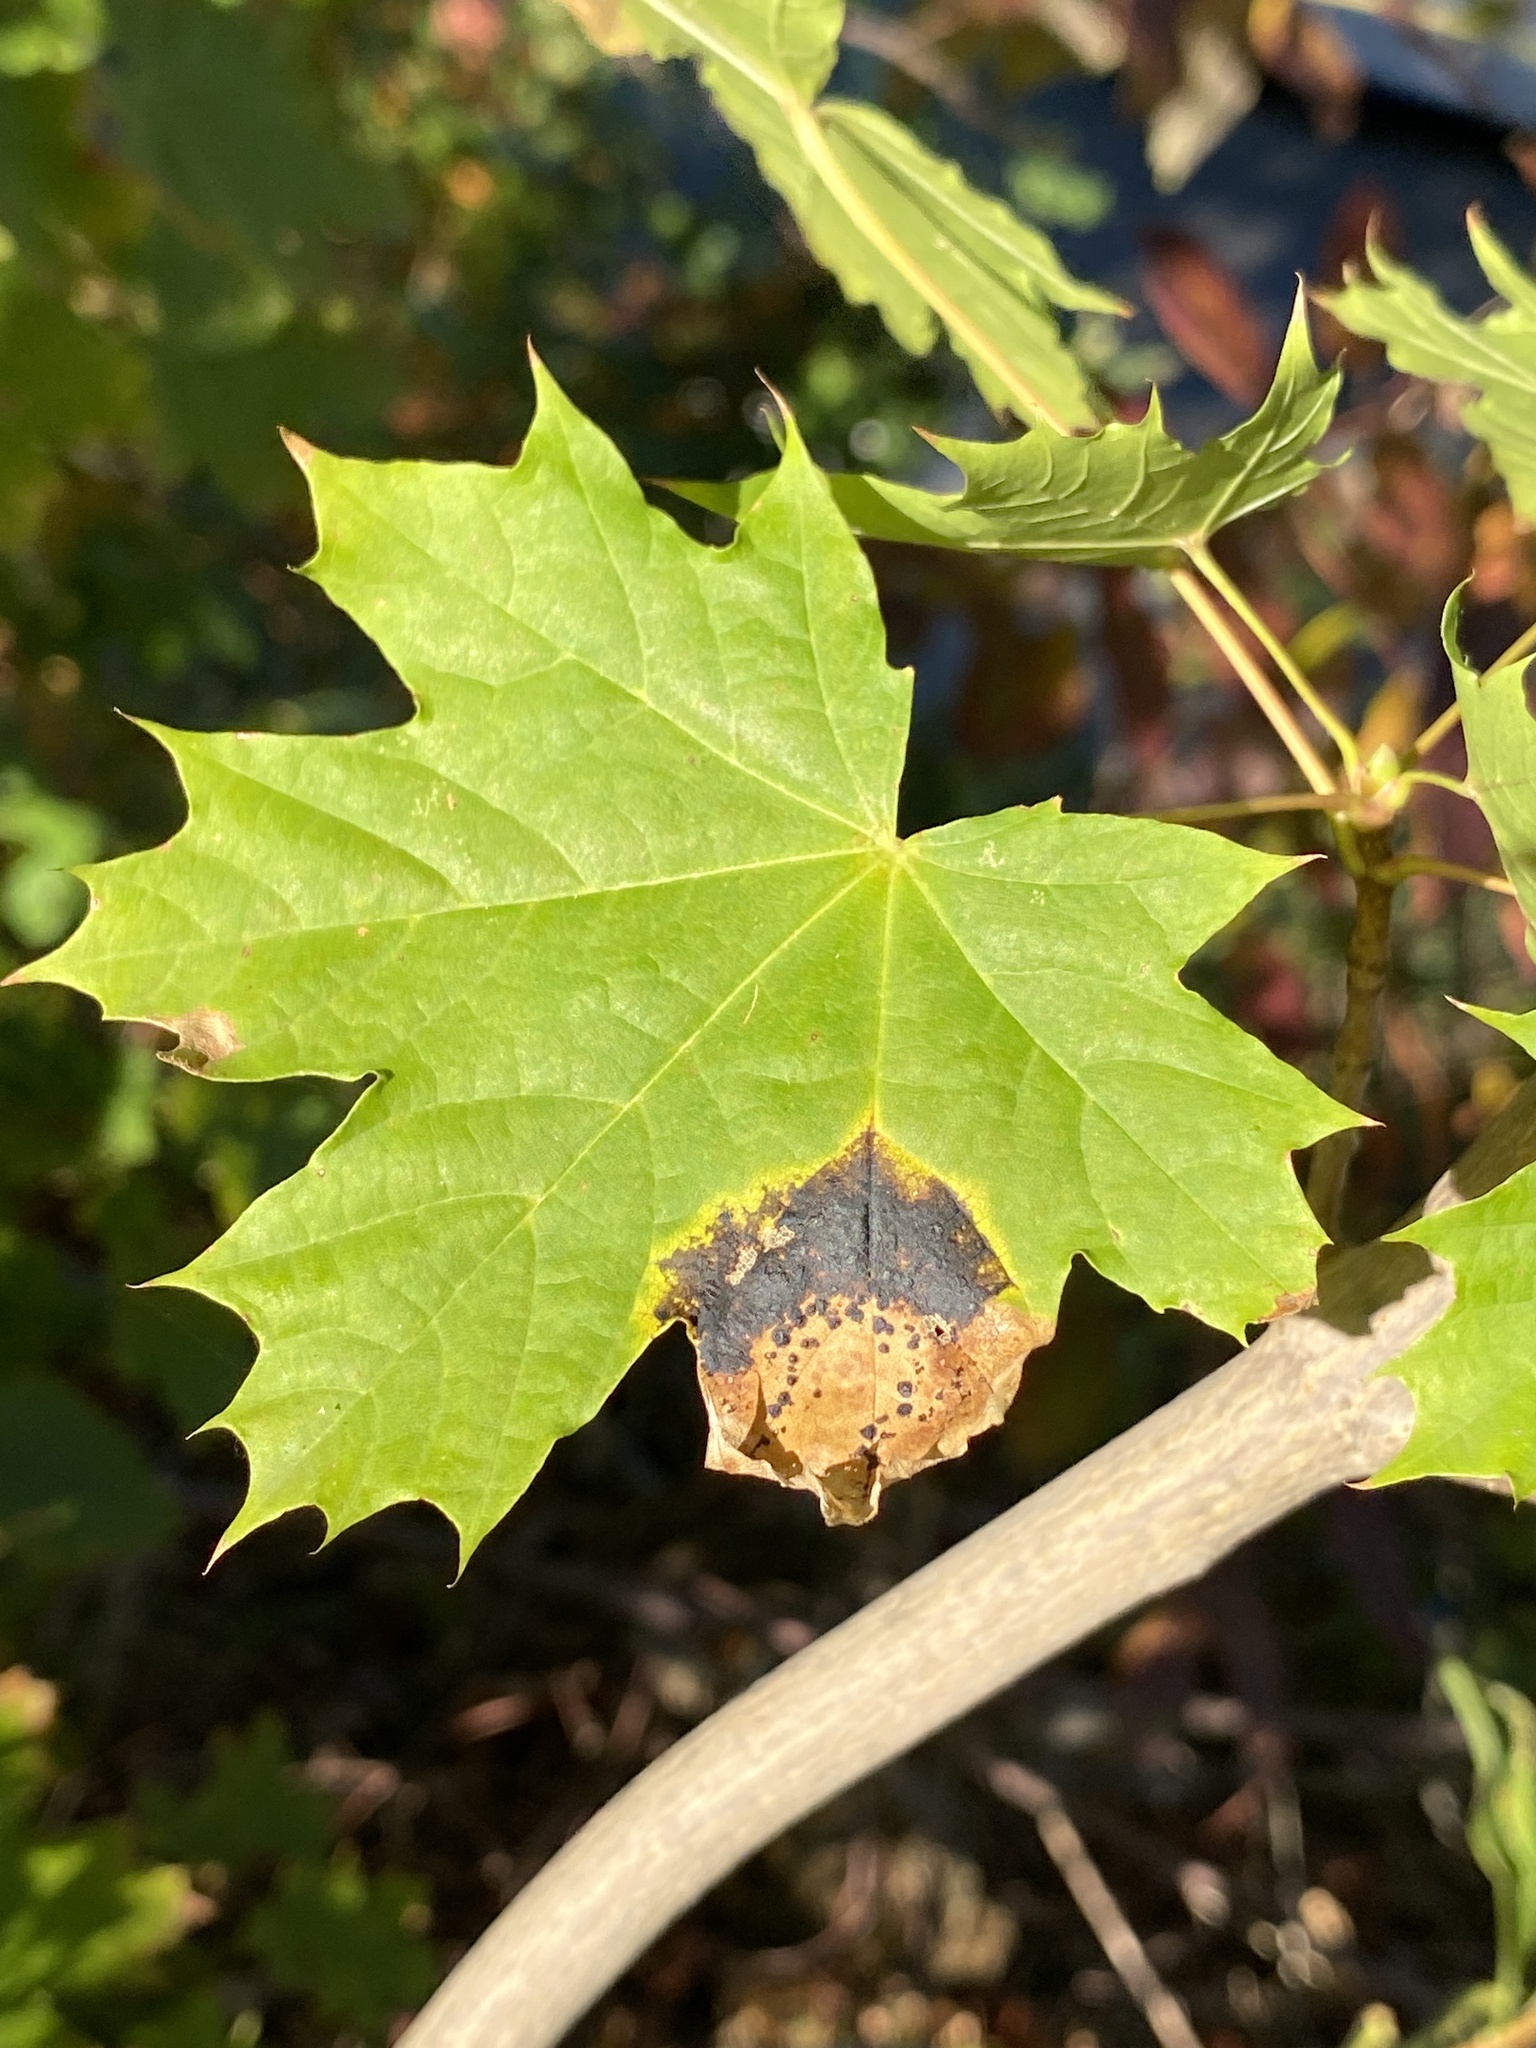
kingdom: Fungi
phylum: Ascomycota
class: Leotiomycetes
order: Rhytismatales
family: Rhytismataceae
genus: Rhytisma
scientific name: Rhytisma acerinum
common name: European tar spot
